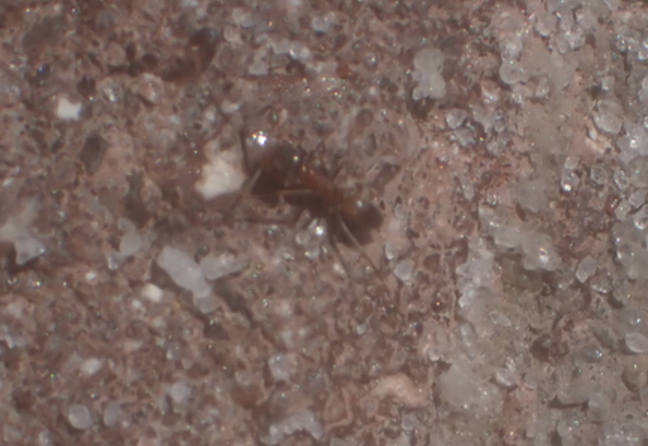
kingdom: Animalia
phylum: Arthropoda
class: Insecta
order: Hymenoptera
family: Formicidae
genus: Dorymyrmex
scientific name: Dorymyrmex bureni
